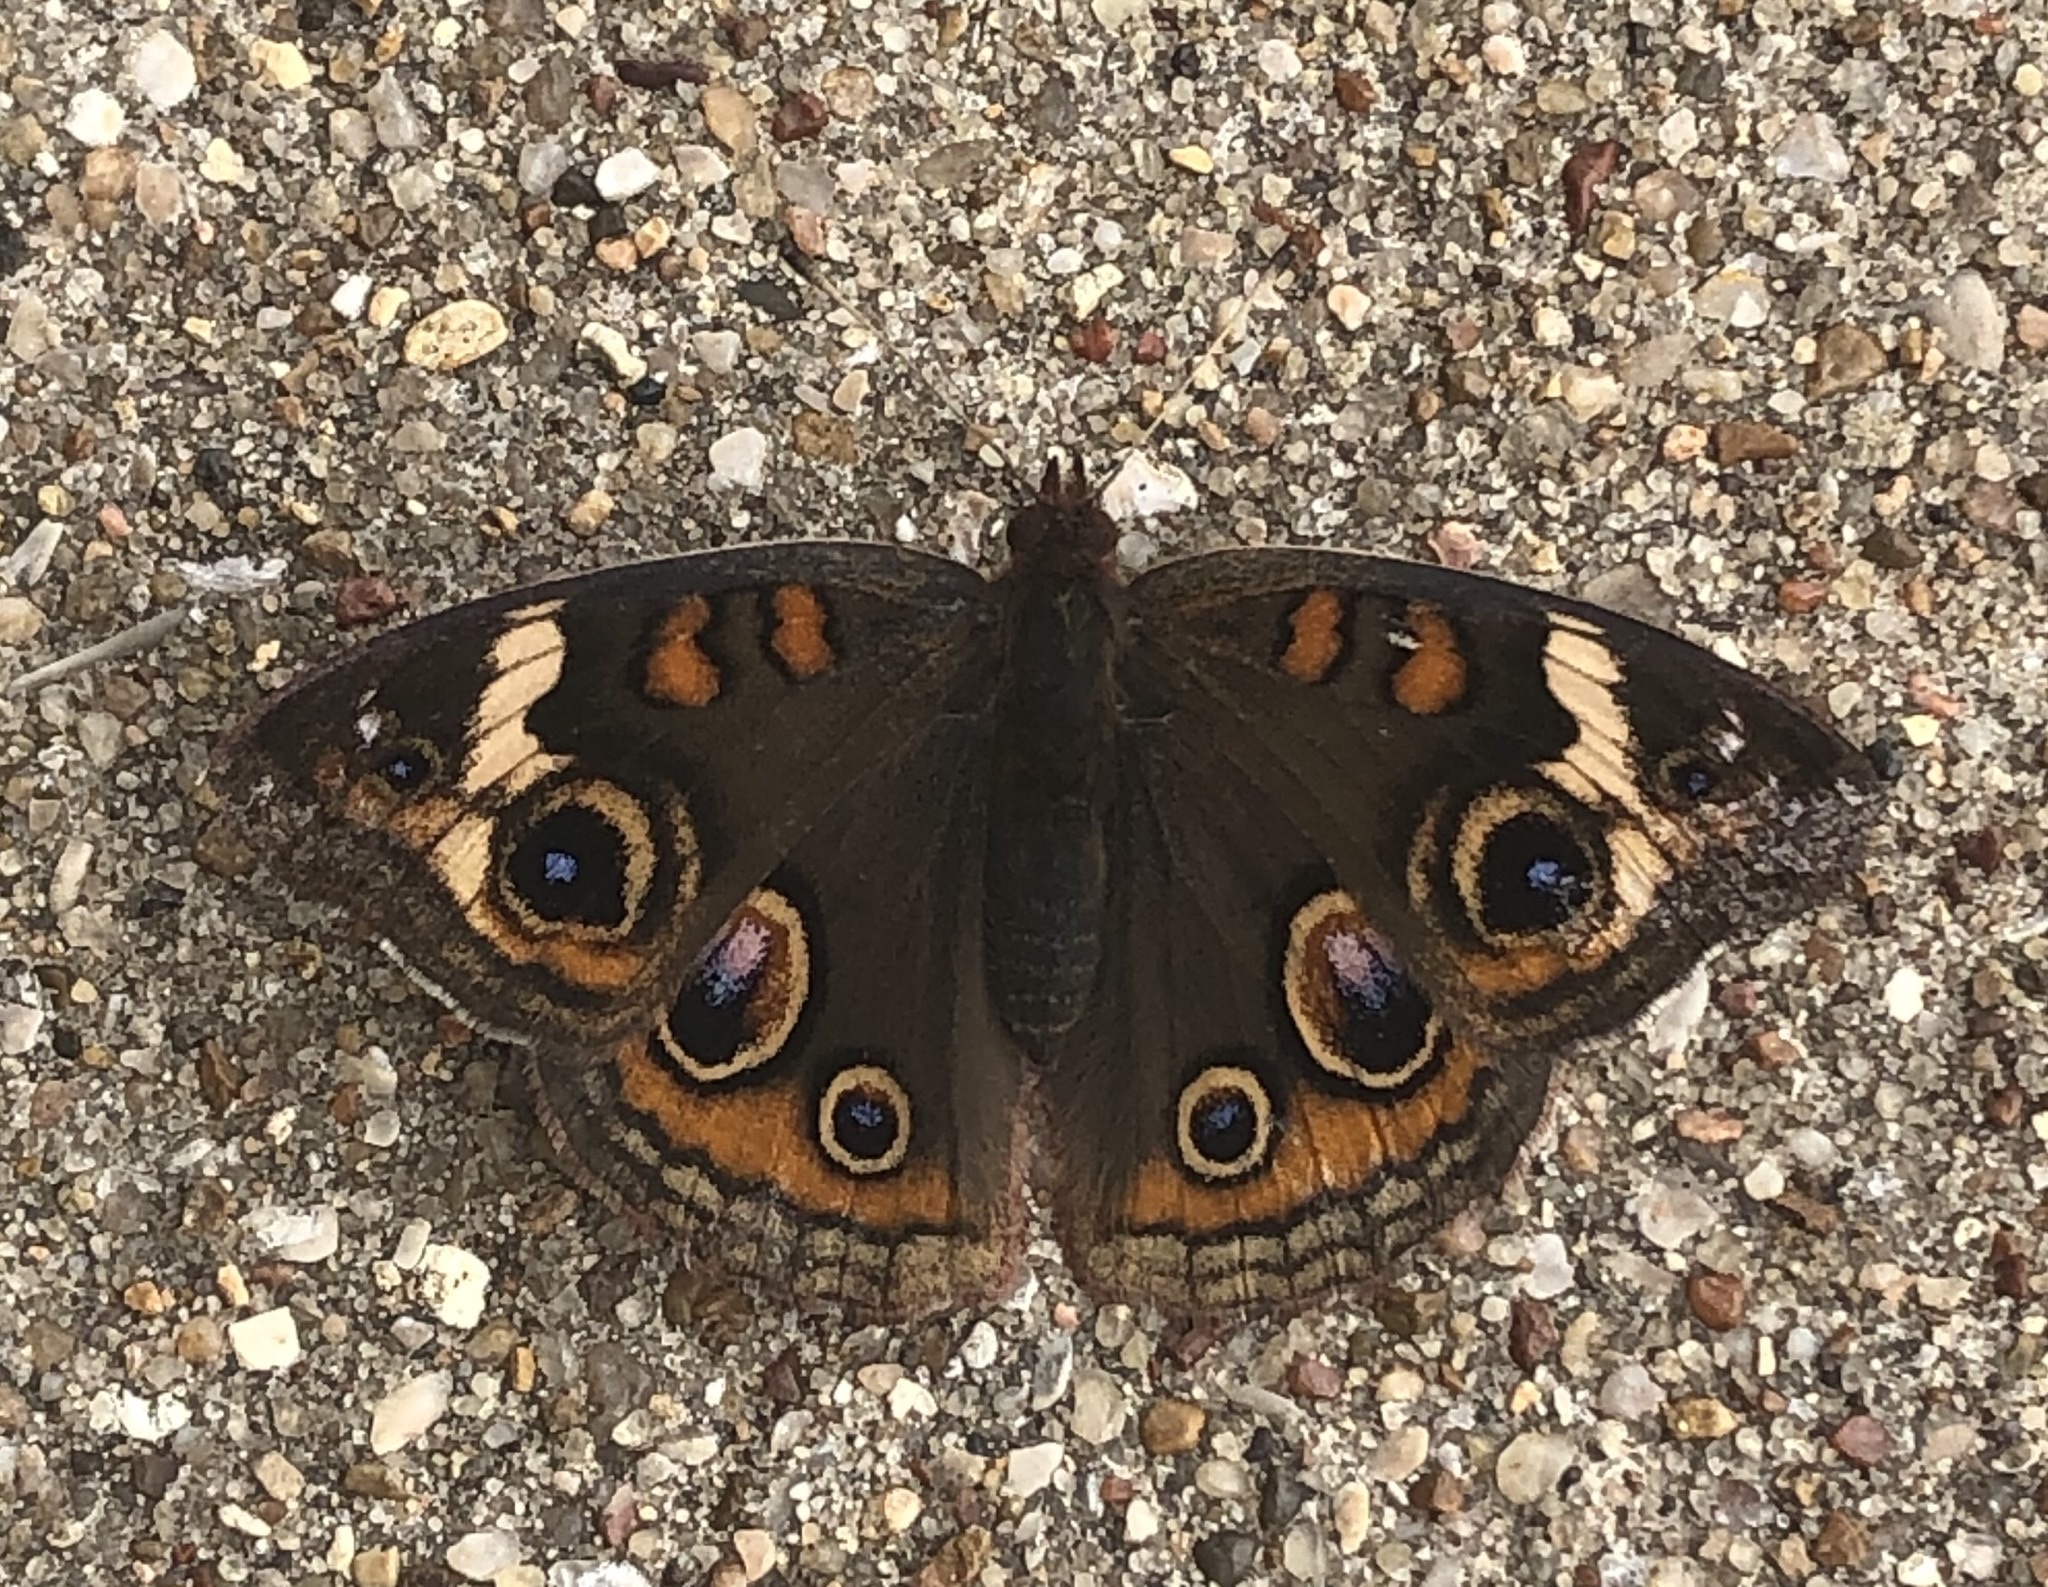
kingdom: Animalia
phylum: Arthropoda
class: Insecta
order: Lepidoptera
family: Nymphalidae
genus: Junonia
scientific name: Junonia coenia
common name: Common buckeye
